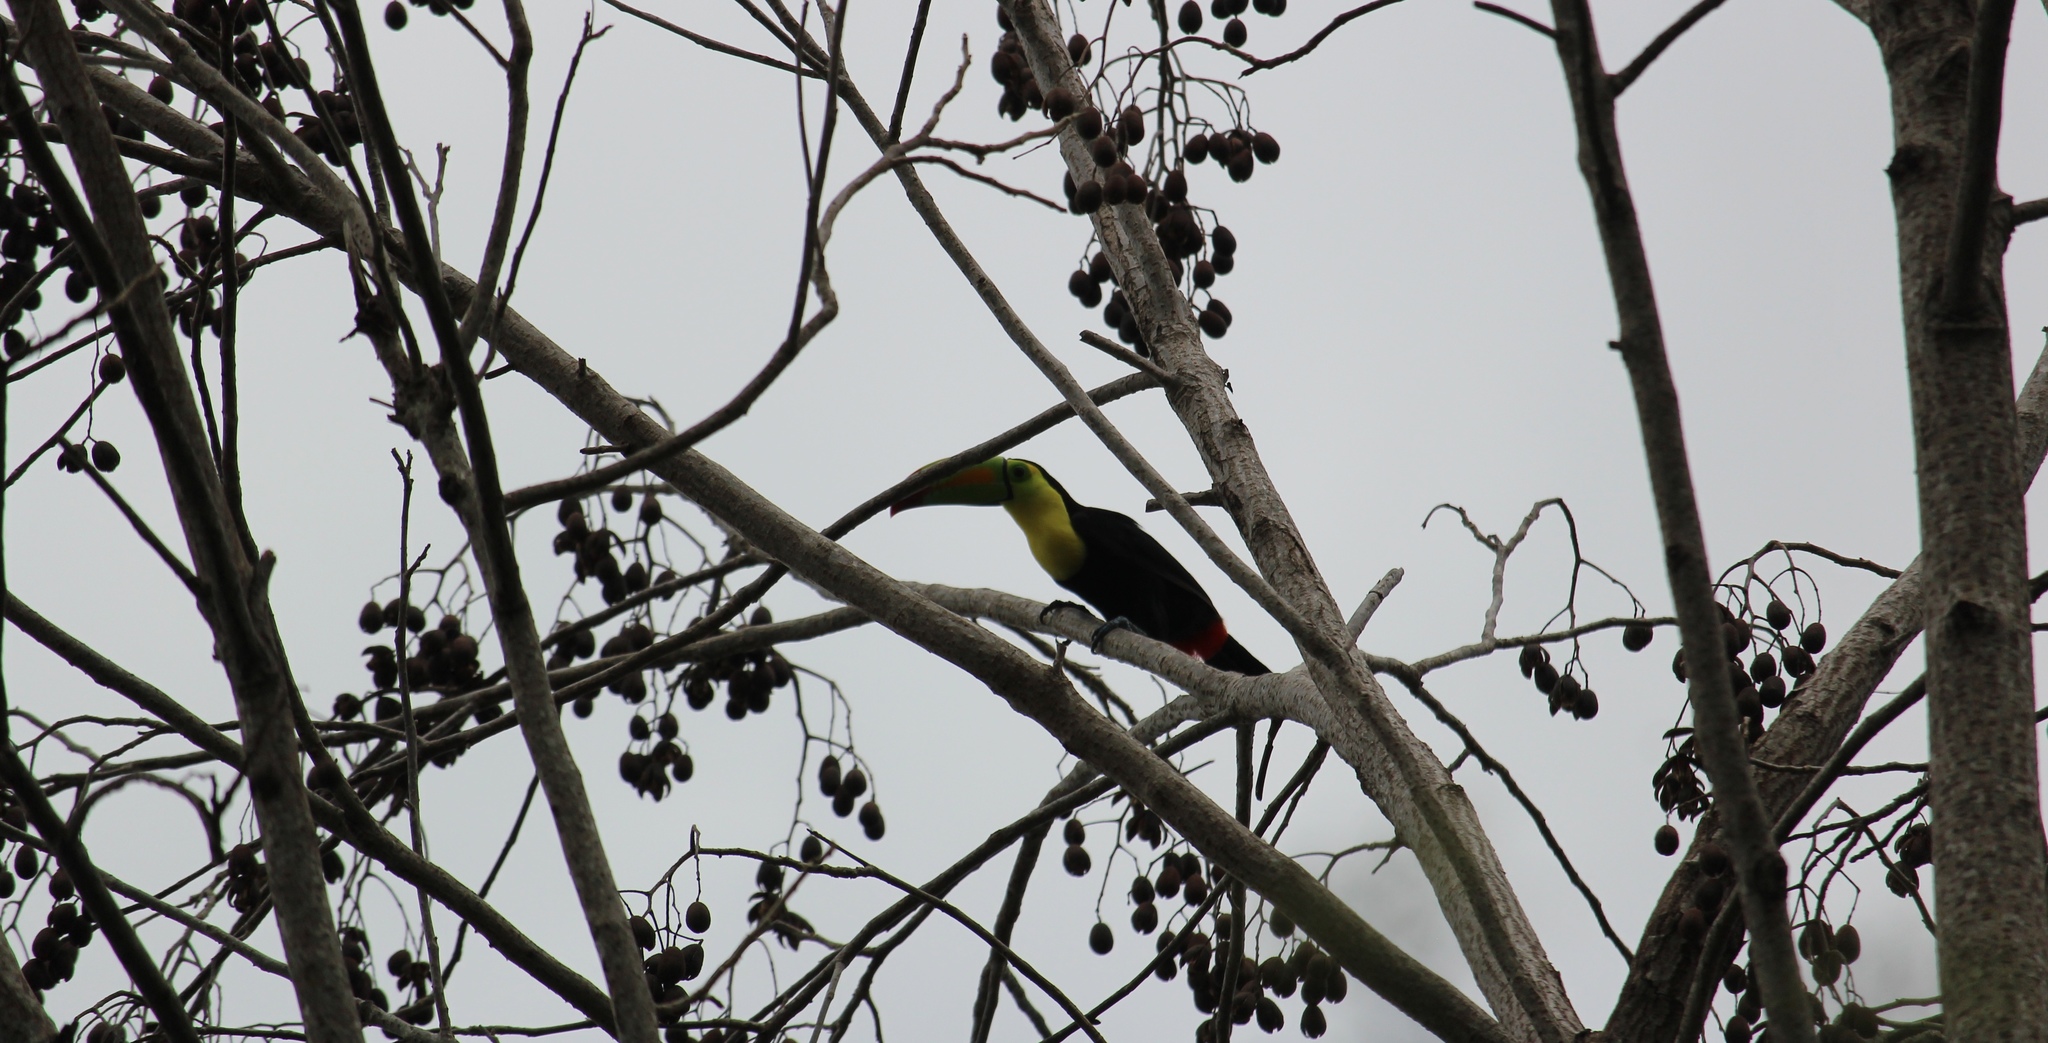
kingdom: Animalia
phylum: Chordata
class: Aves
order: Piciformes
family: Ramphastidae
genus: Ramphastos
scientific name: Ramphastos sulfuratus
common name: Keel-billed toucan
